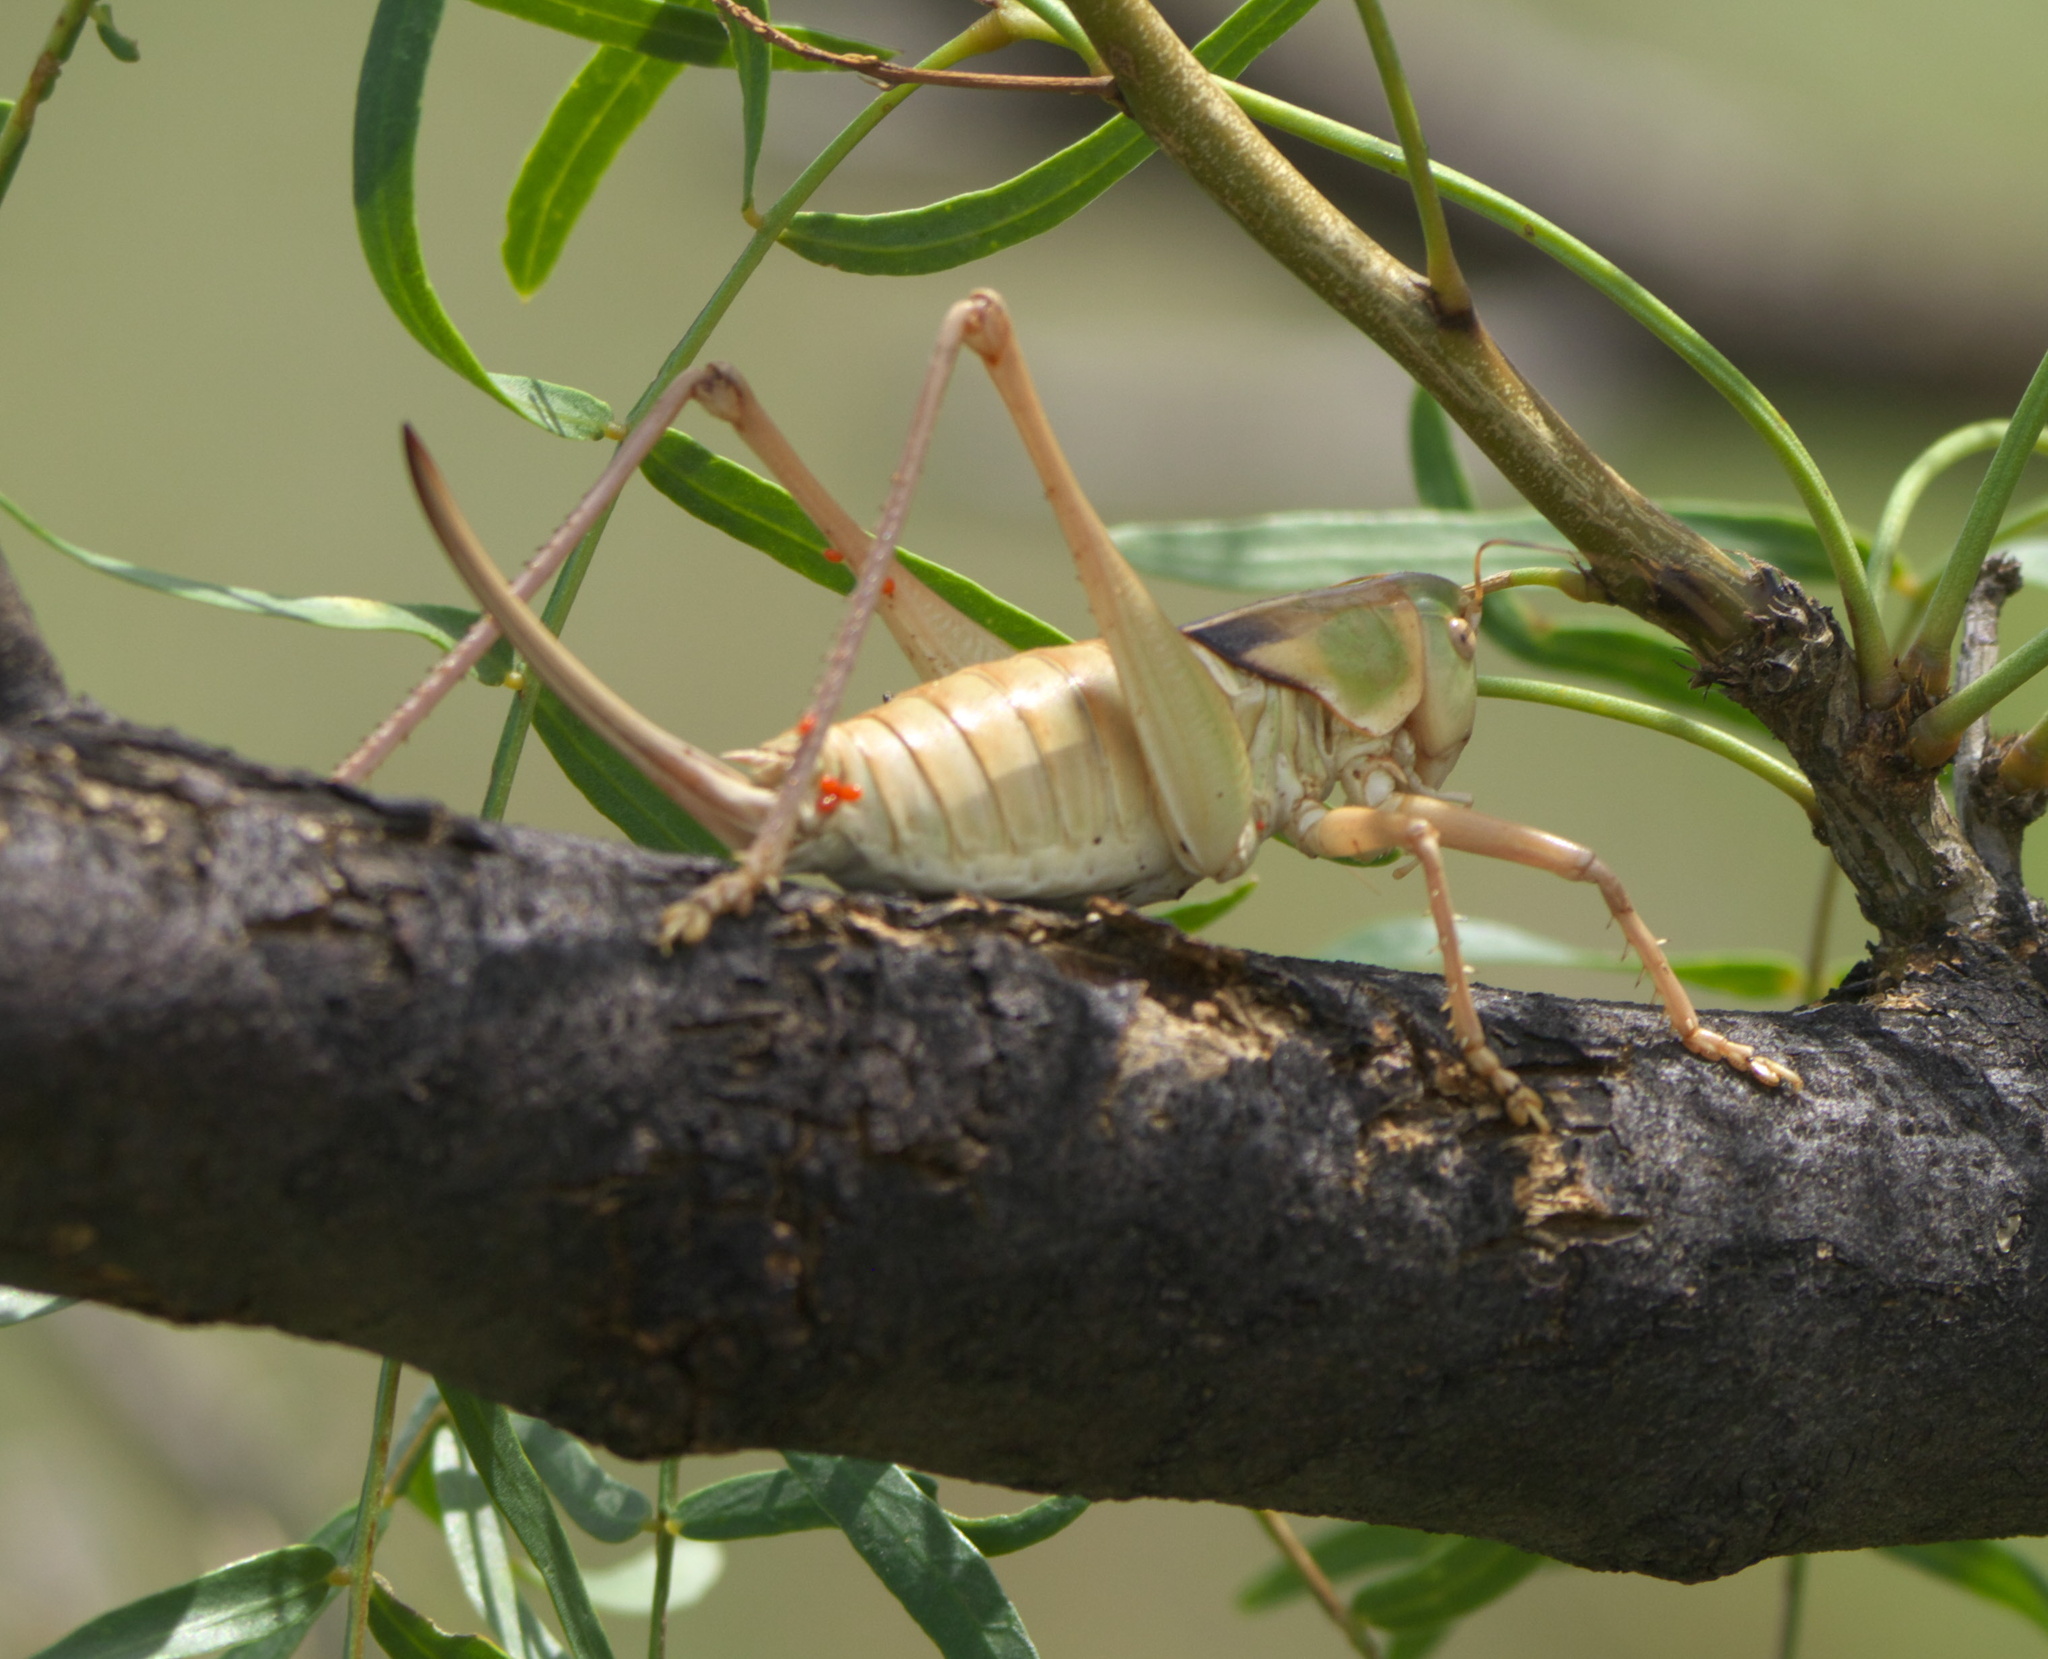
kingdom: Animalia
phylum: Arthropoda
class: Insecta
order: Orthoptera
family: Tettigoniidae
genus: Pediodectes
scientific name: Pediodectes haldemanii
